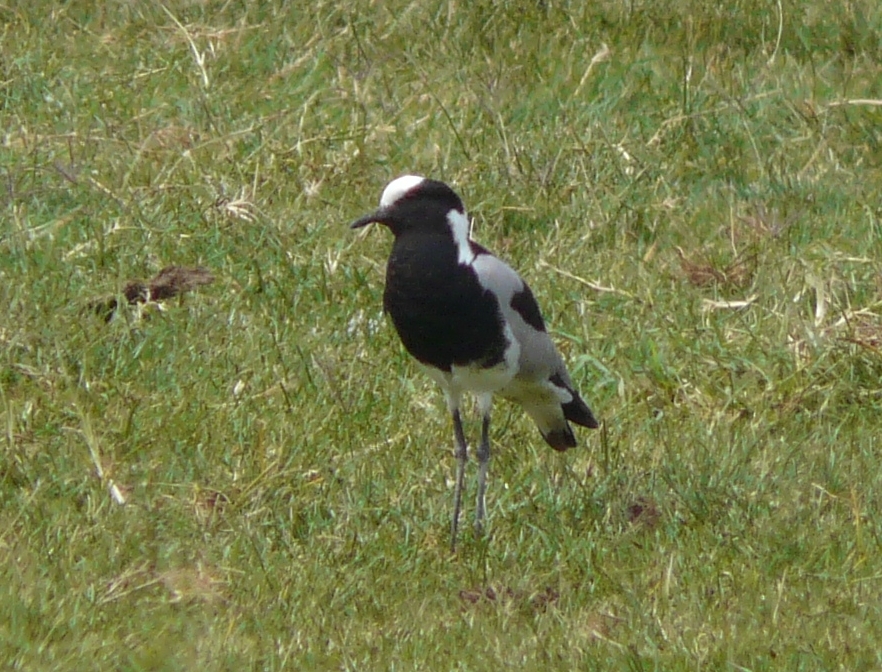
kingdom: Animalia
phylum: Chordata
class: Aves
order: Charadriiformes
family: Charadriidae
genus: Vanellus
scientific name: Vanellus armatus
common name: Blacksmith lapwing
